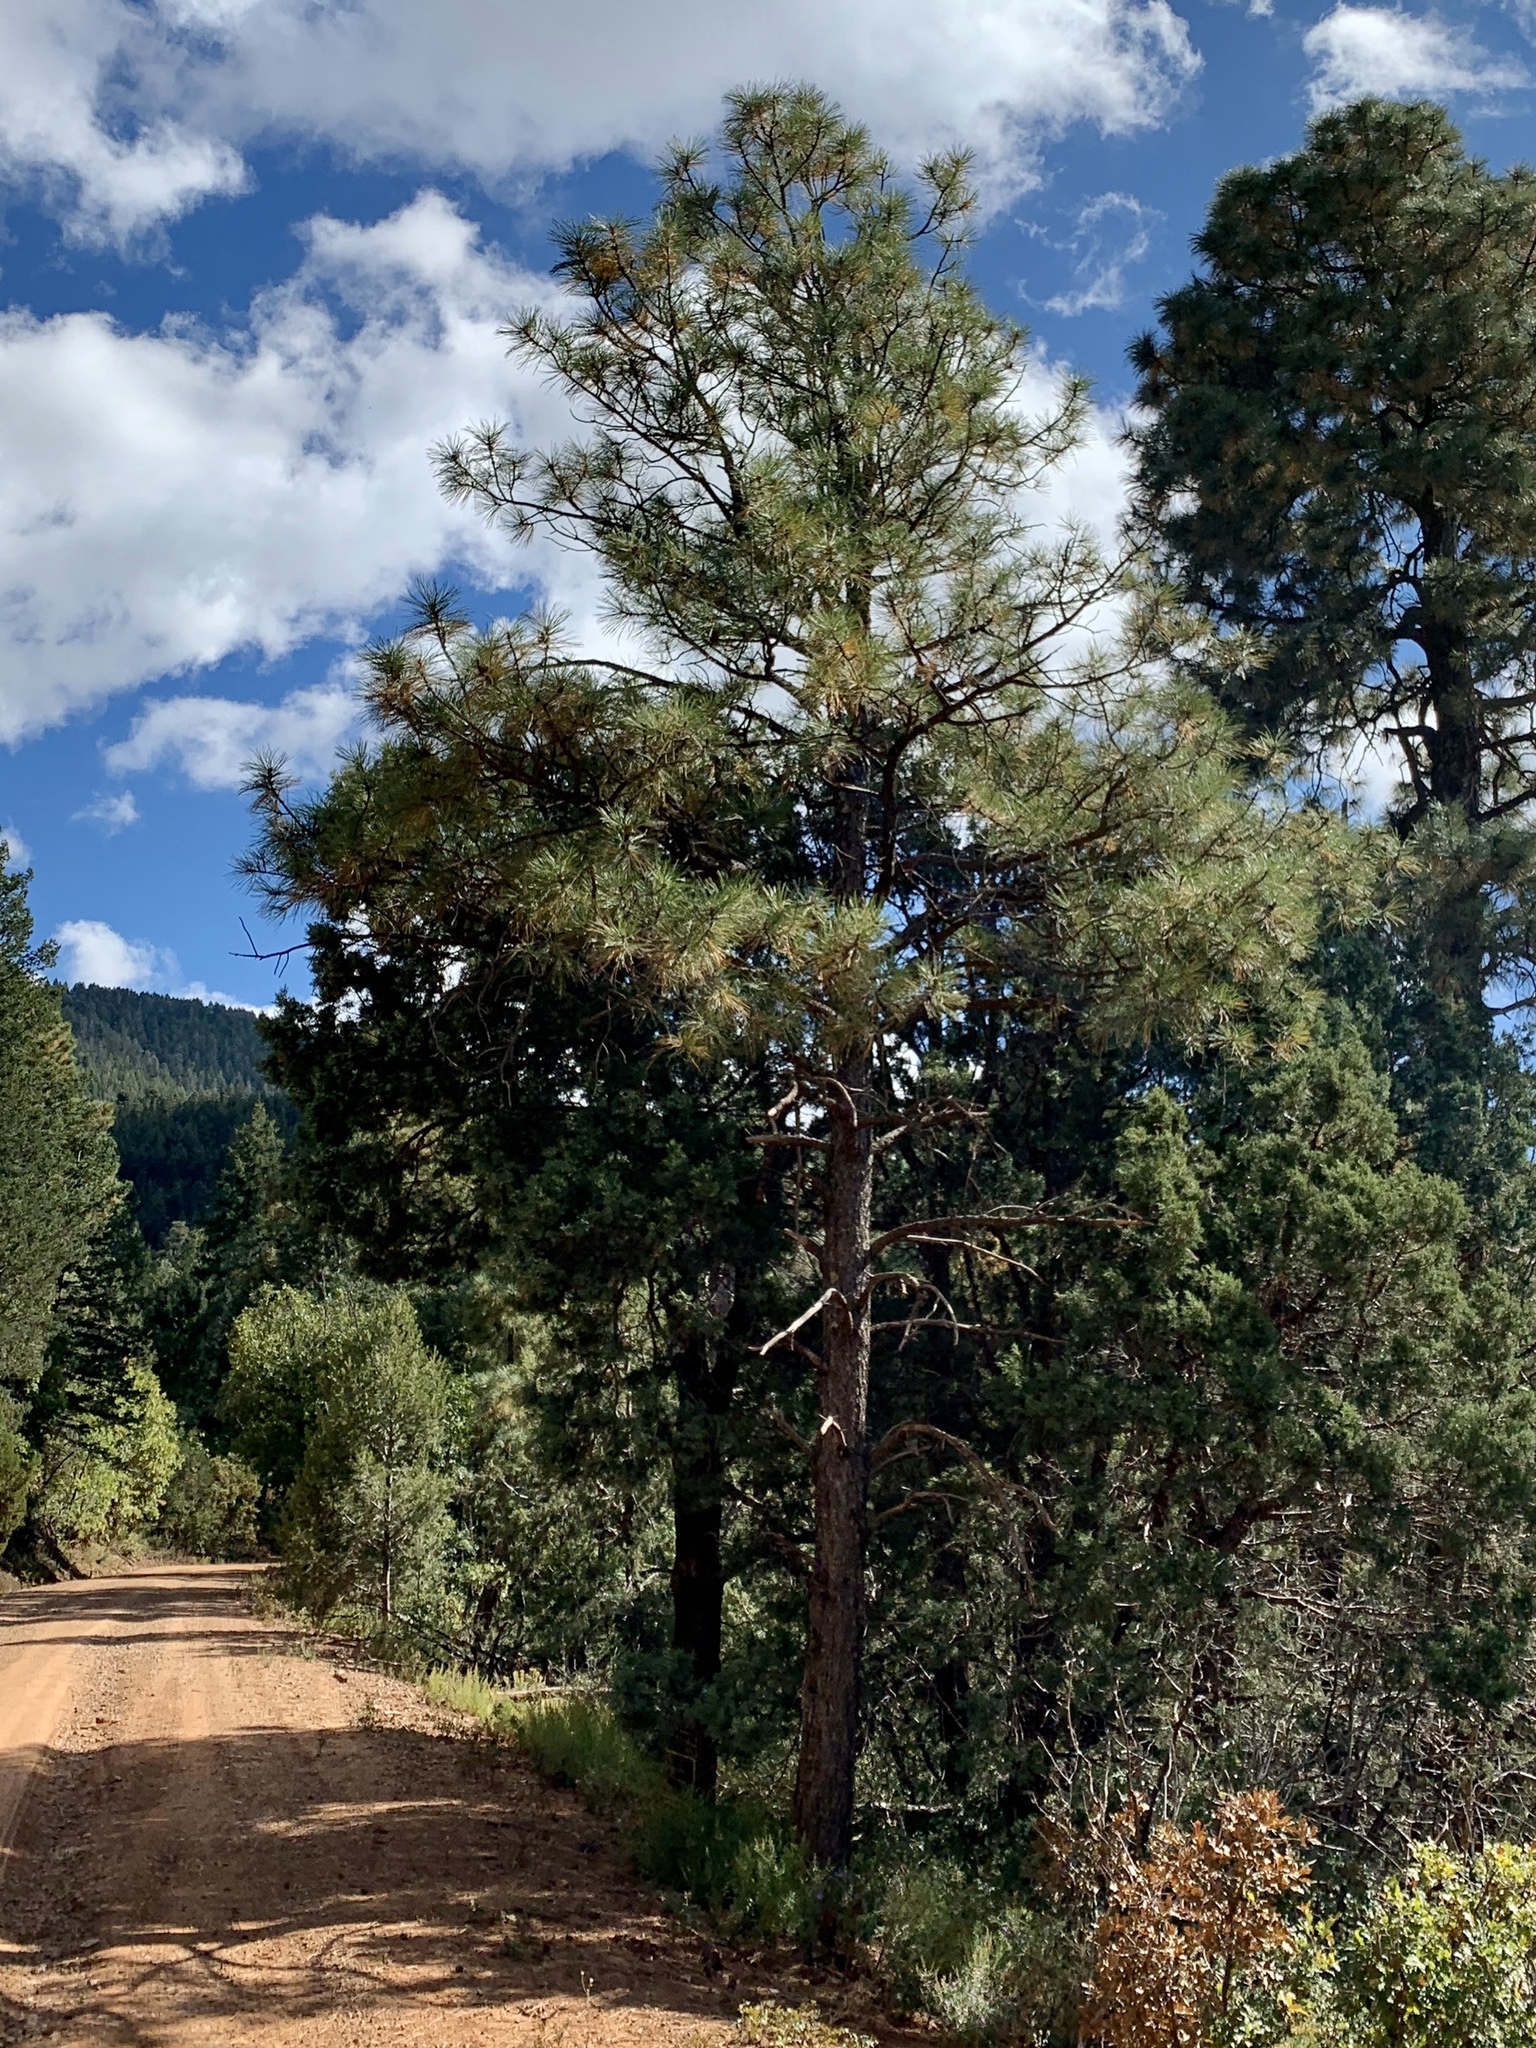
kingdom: Plantae
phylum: Tracheophyta
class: Pinopsida
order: Pinales
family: Pinaceae
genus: Pinus
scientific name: Pinus ponderosa
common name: Western yellow-pine
